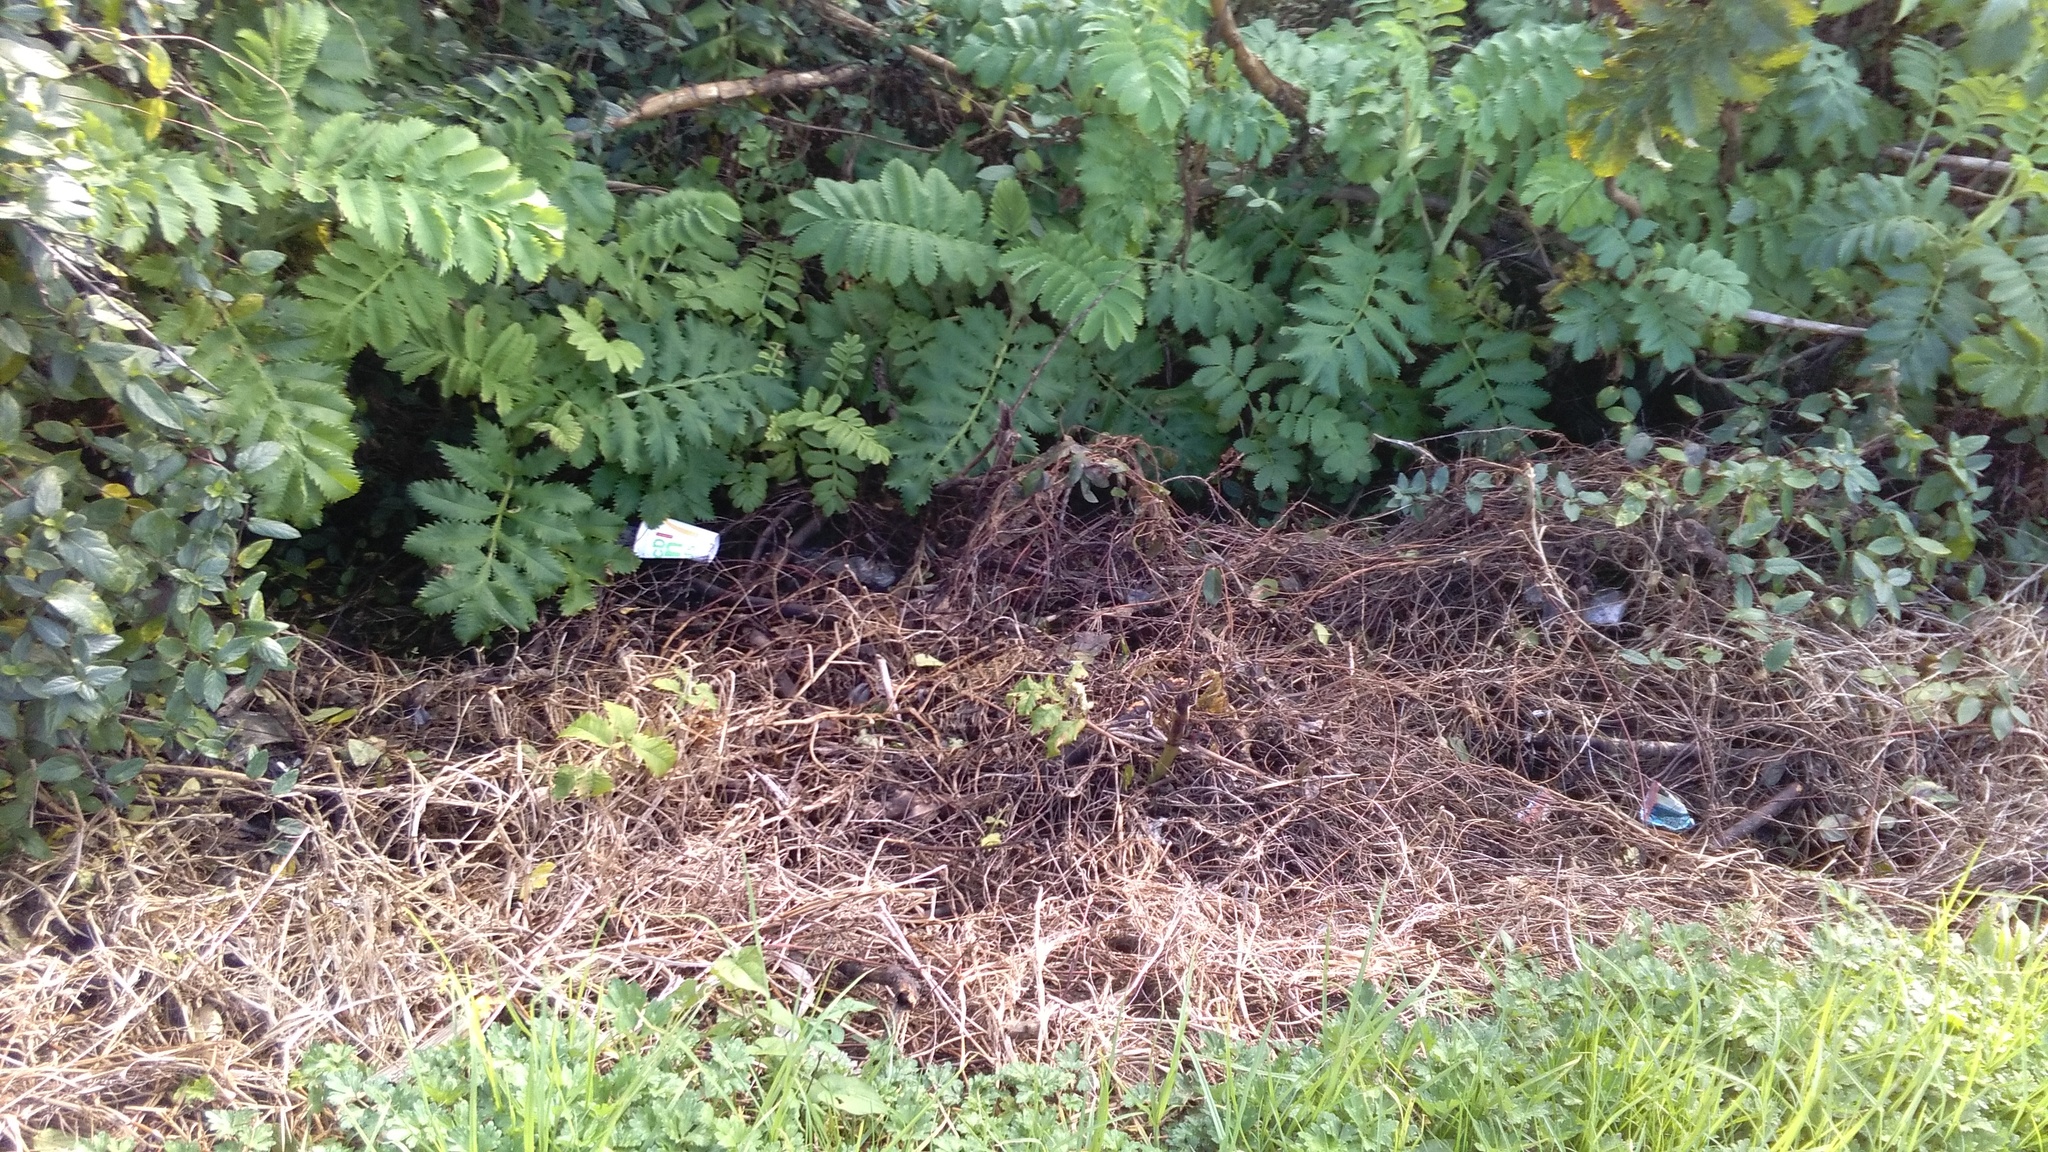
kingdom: Plantae
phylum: Tracheophyta
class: Magnoliopsida
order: Geraniales
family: Melianthaceae
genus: Melianthus
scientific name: Melianthus major
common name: Honey-flower
